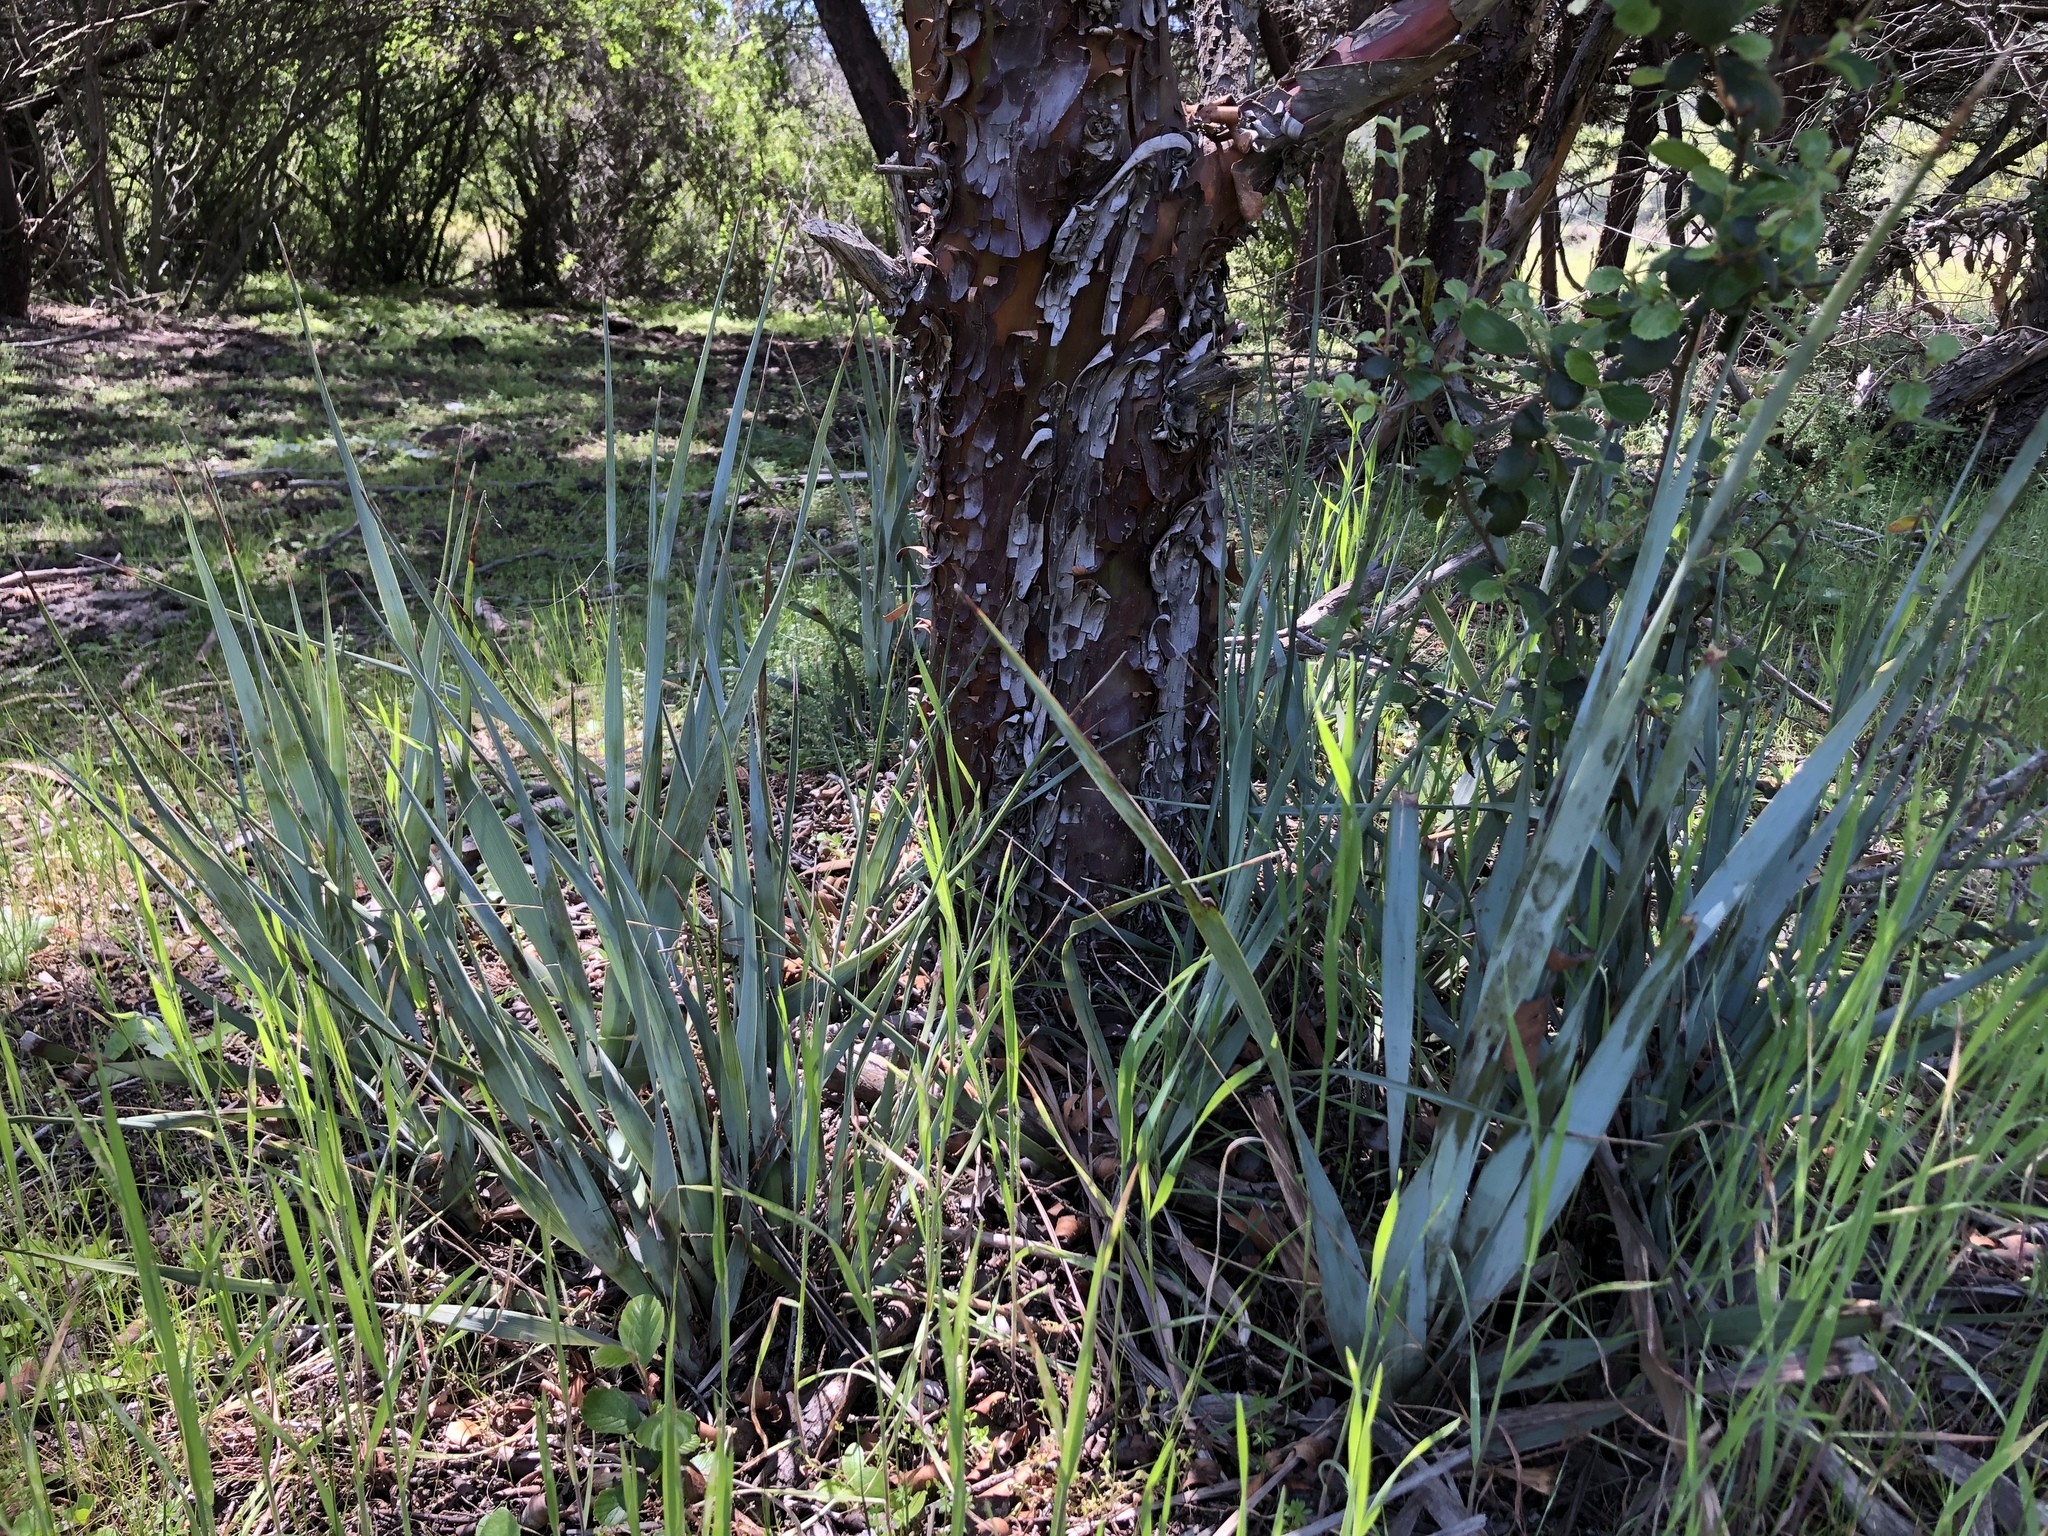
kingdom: Plantae
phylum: Tracheophyta
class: Liliopsida
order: Asparagales
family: Asparagaceae
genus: Nolina
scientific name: Nolina interrata
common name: Dehesa bear-grass
